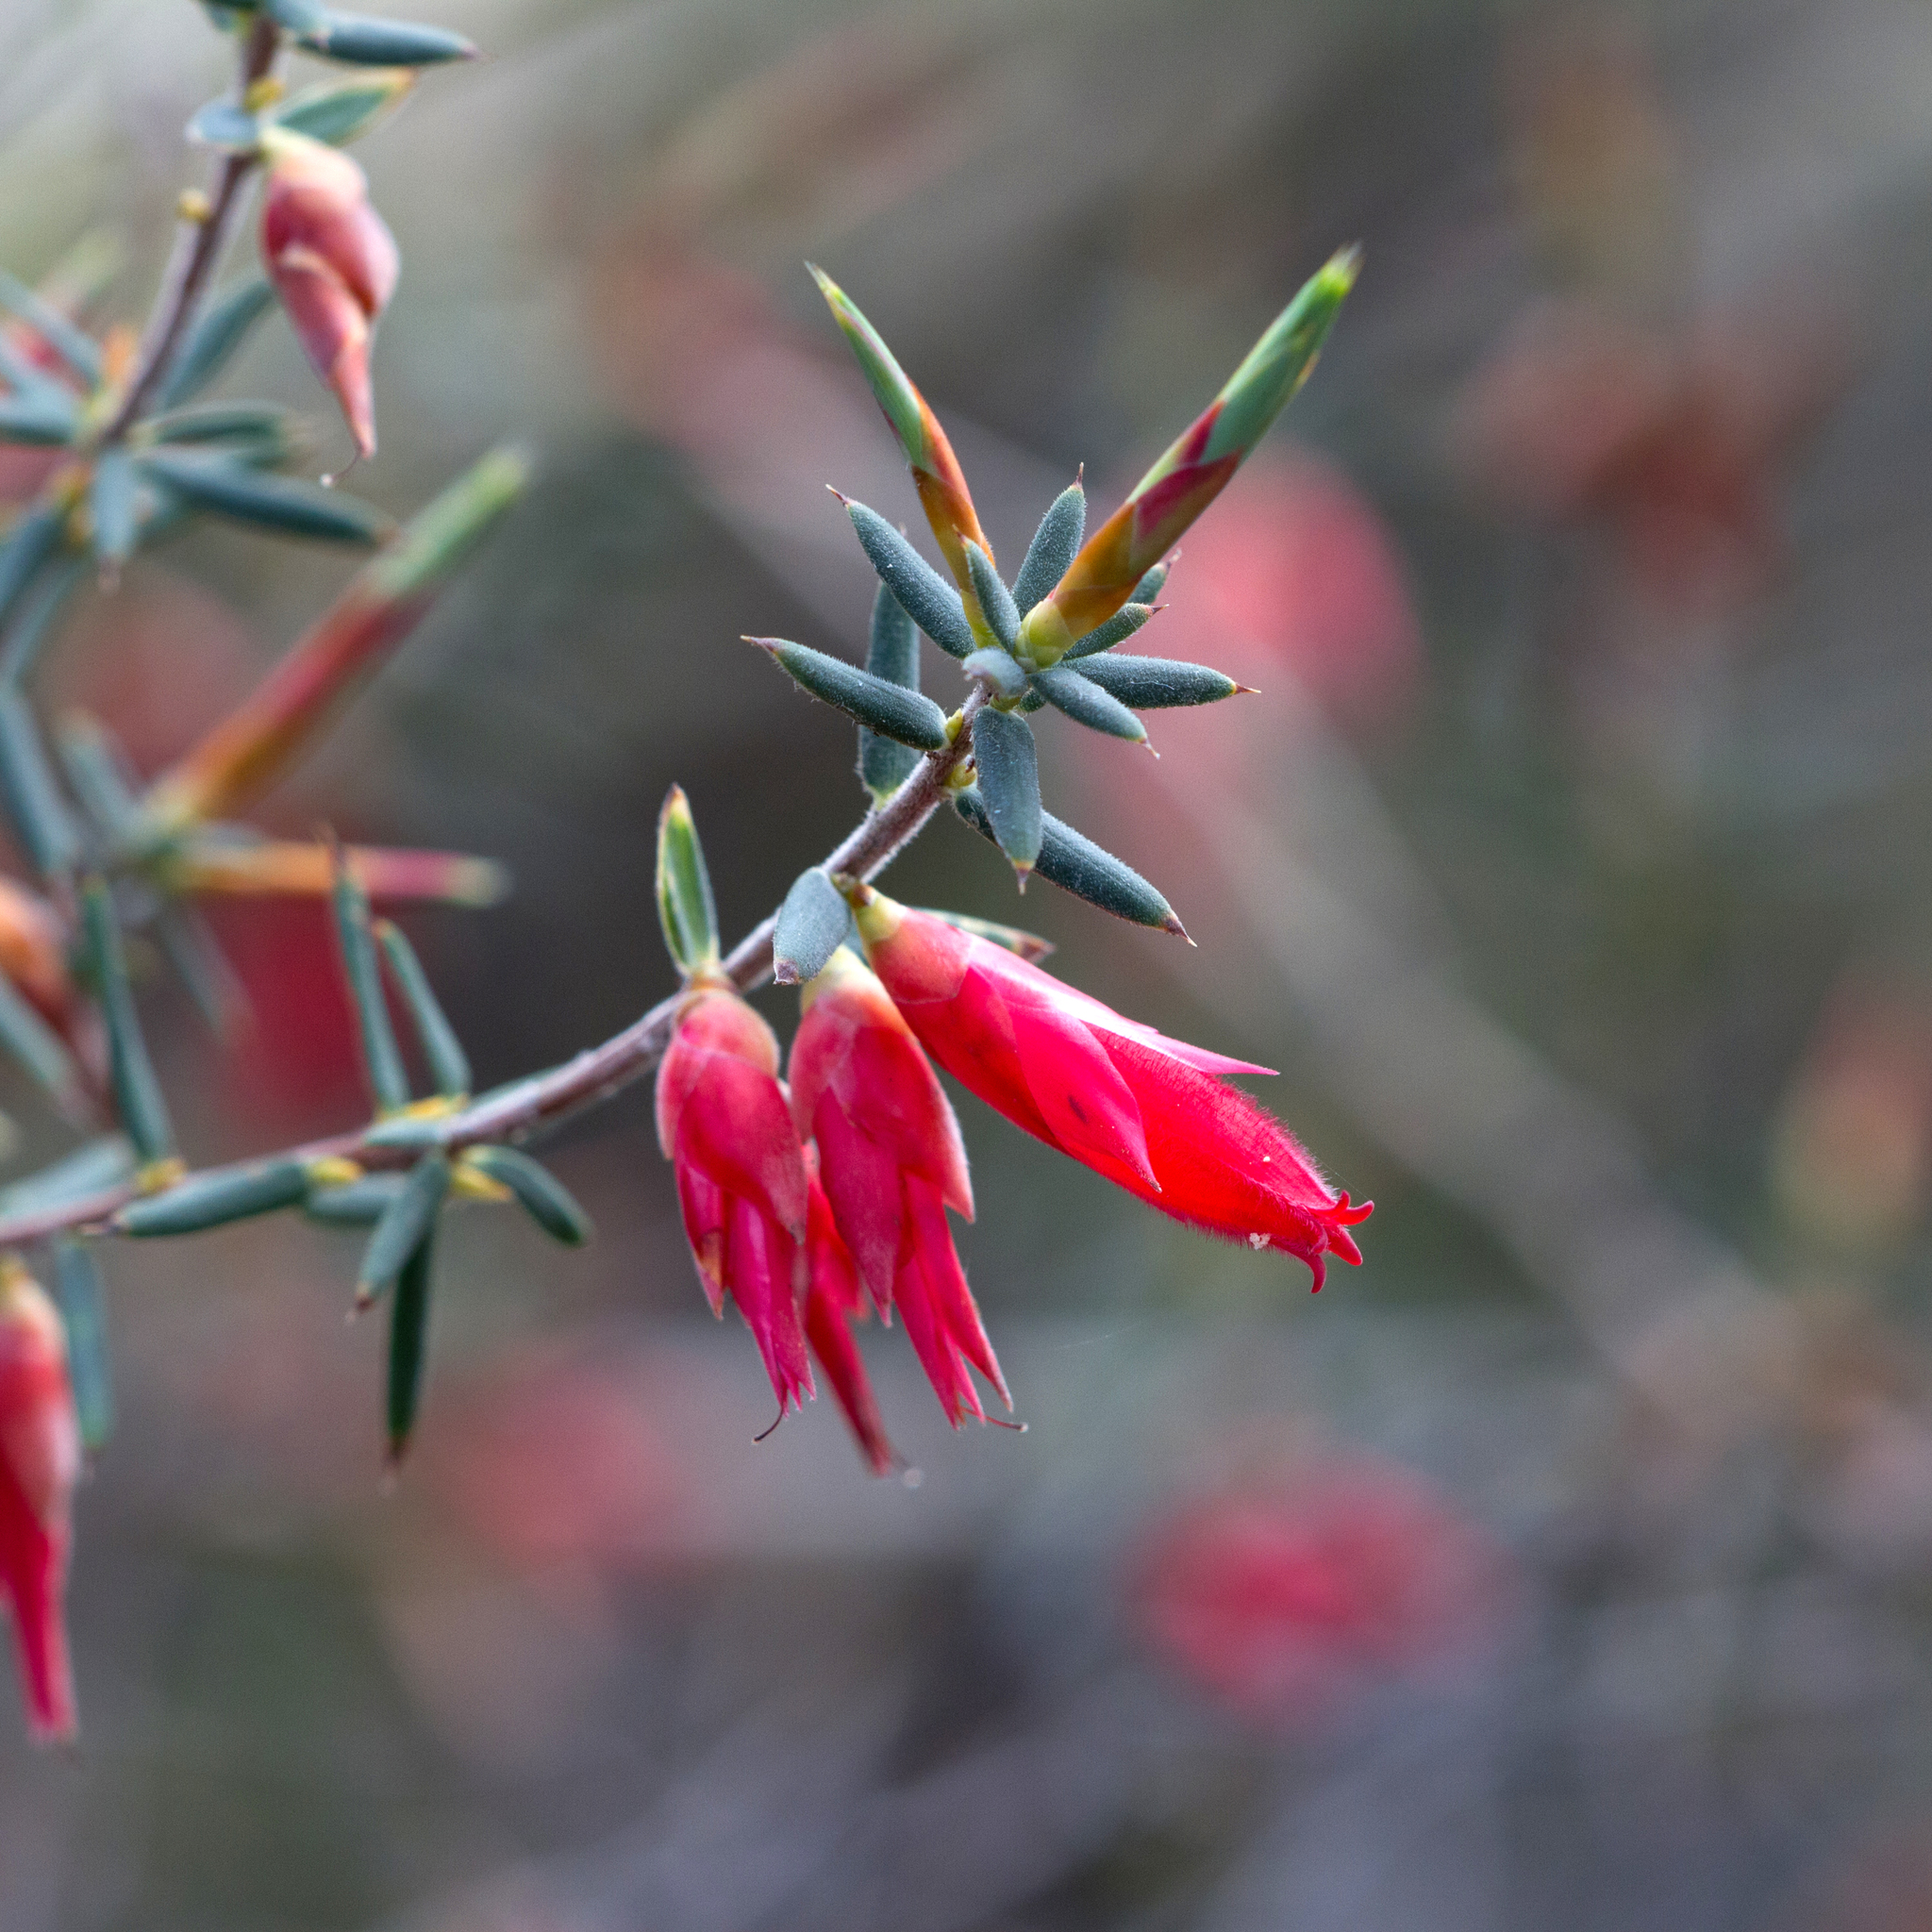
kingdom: Plantae
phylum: Tracheophyta
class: Magnoliopsida
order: Ericales
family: Ericaceae
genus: Stenanthera
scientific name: Stenanthera conostephioides
